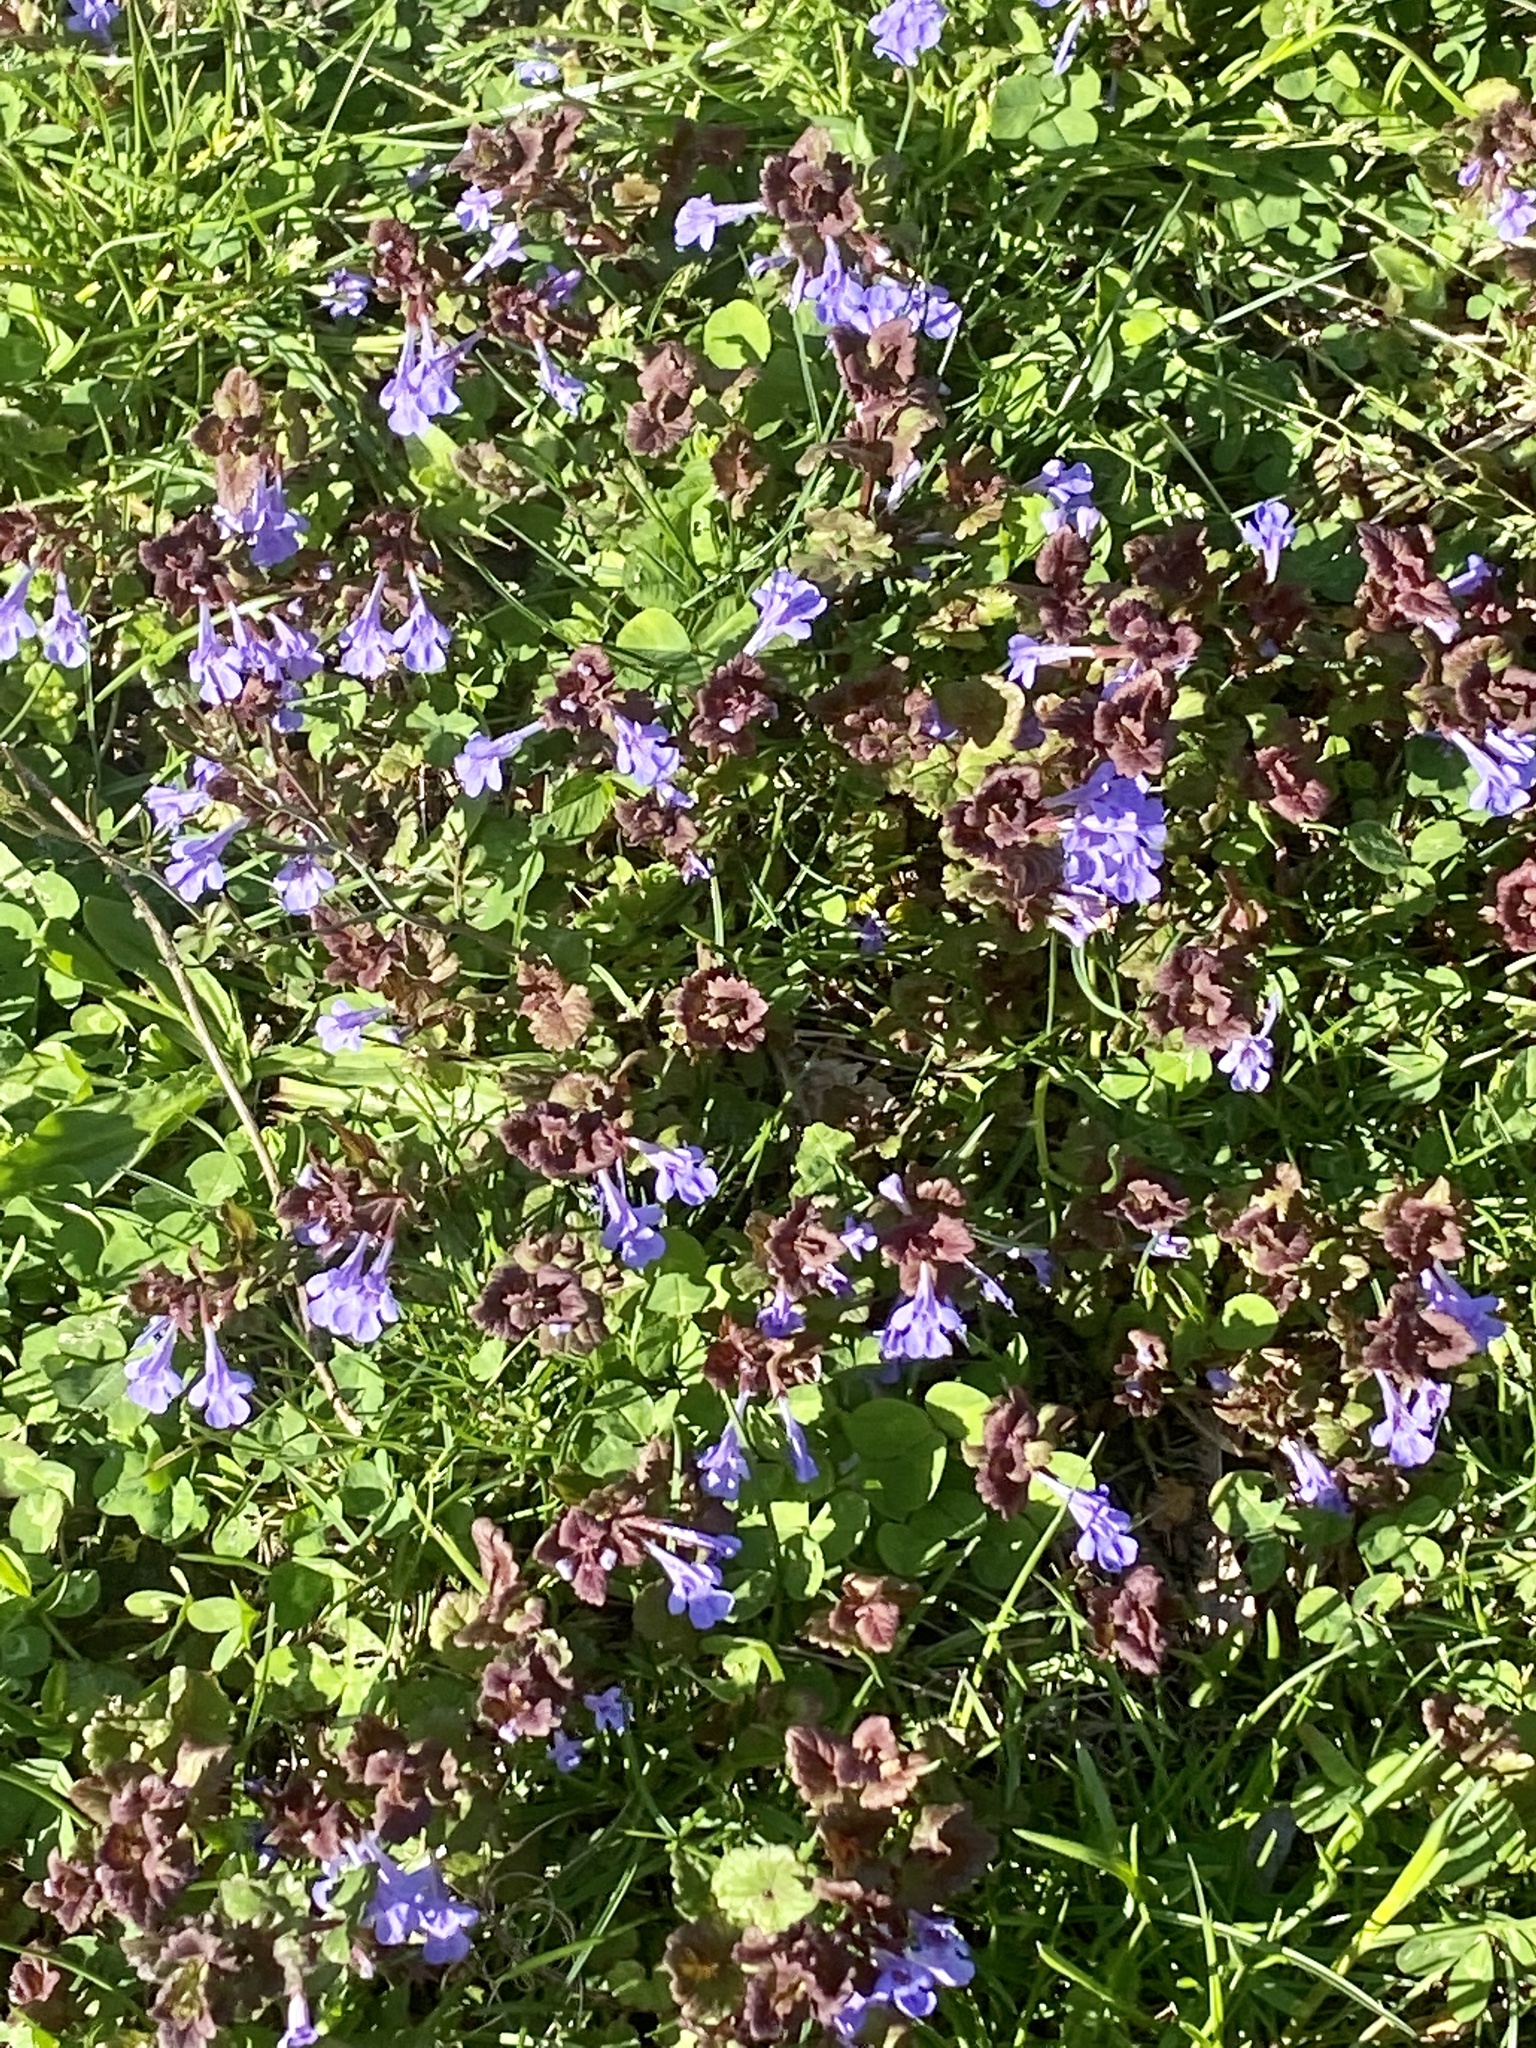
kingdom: Plantae
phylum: Tracheophyta
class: Magnoliopsida
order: Lamiales
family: Lamiaceae
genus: Glechoma
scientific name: Glechoma hederacea
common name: Ground ivy
